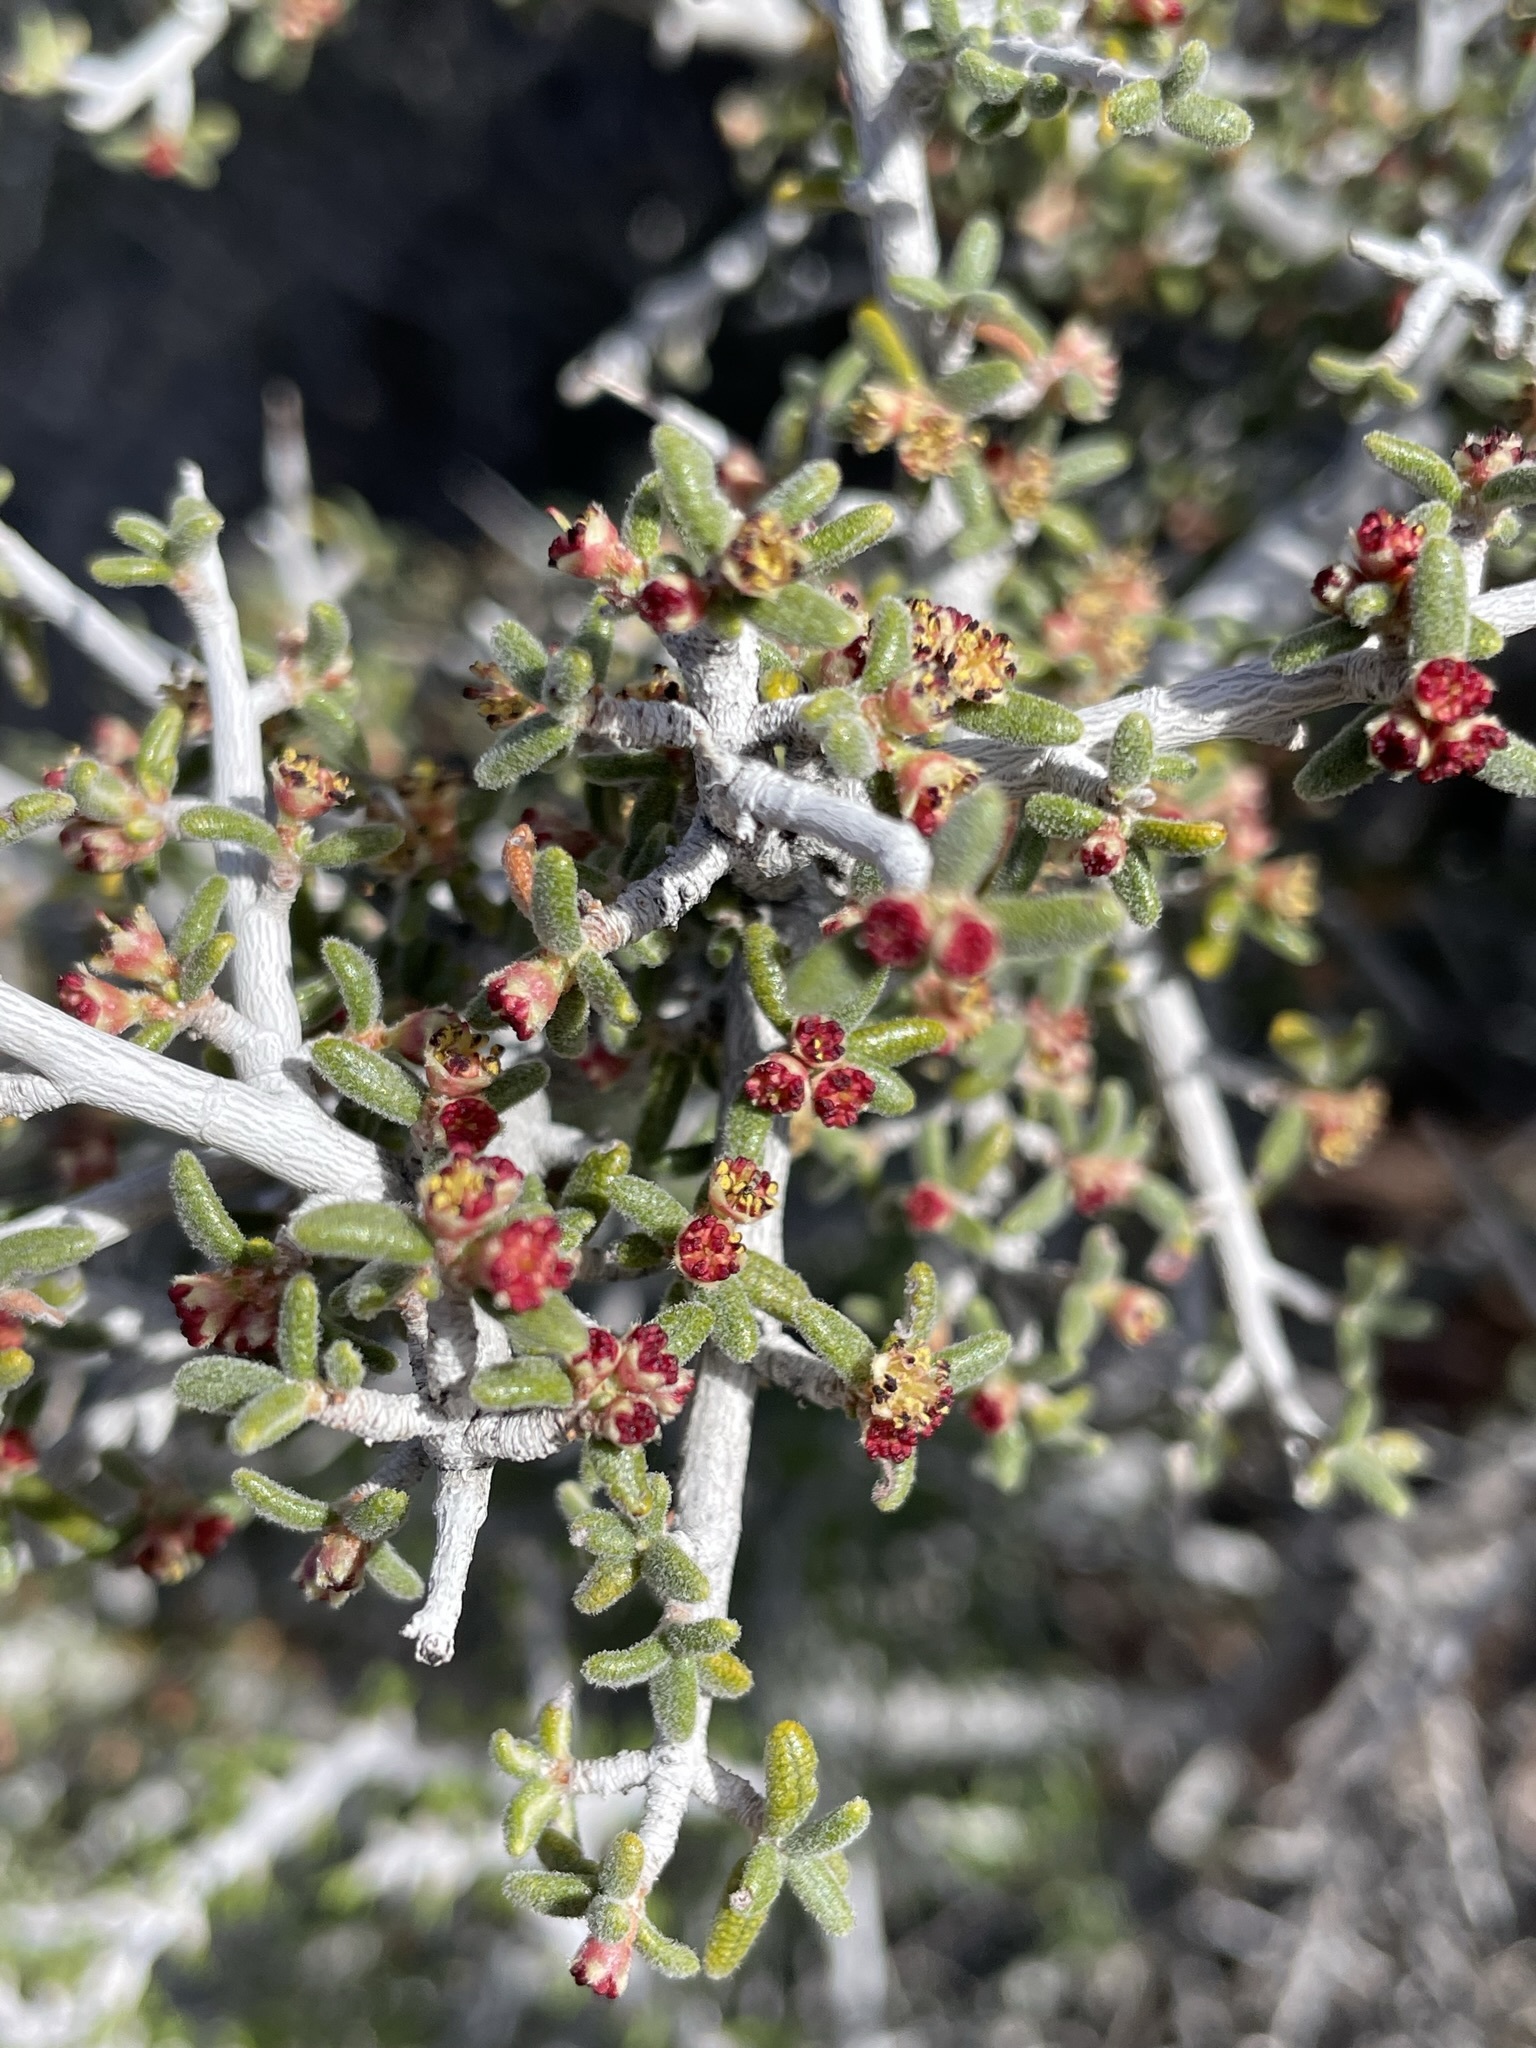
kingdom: Plantae
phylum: Tracheophyta
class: Magnoliopsida
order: Rosales
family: Rosaceae
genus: Cercocarpus
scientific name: Cercocarpus intricatus
